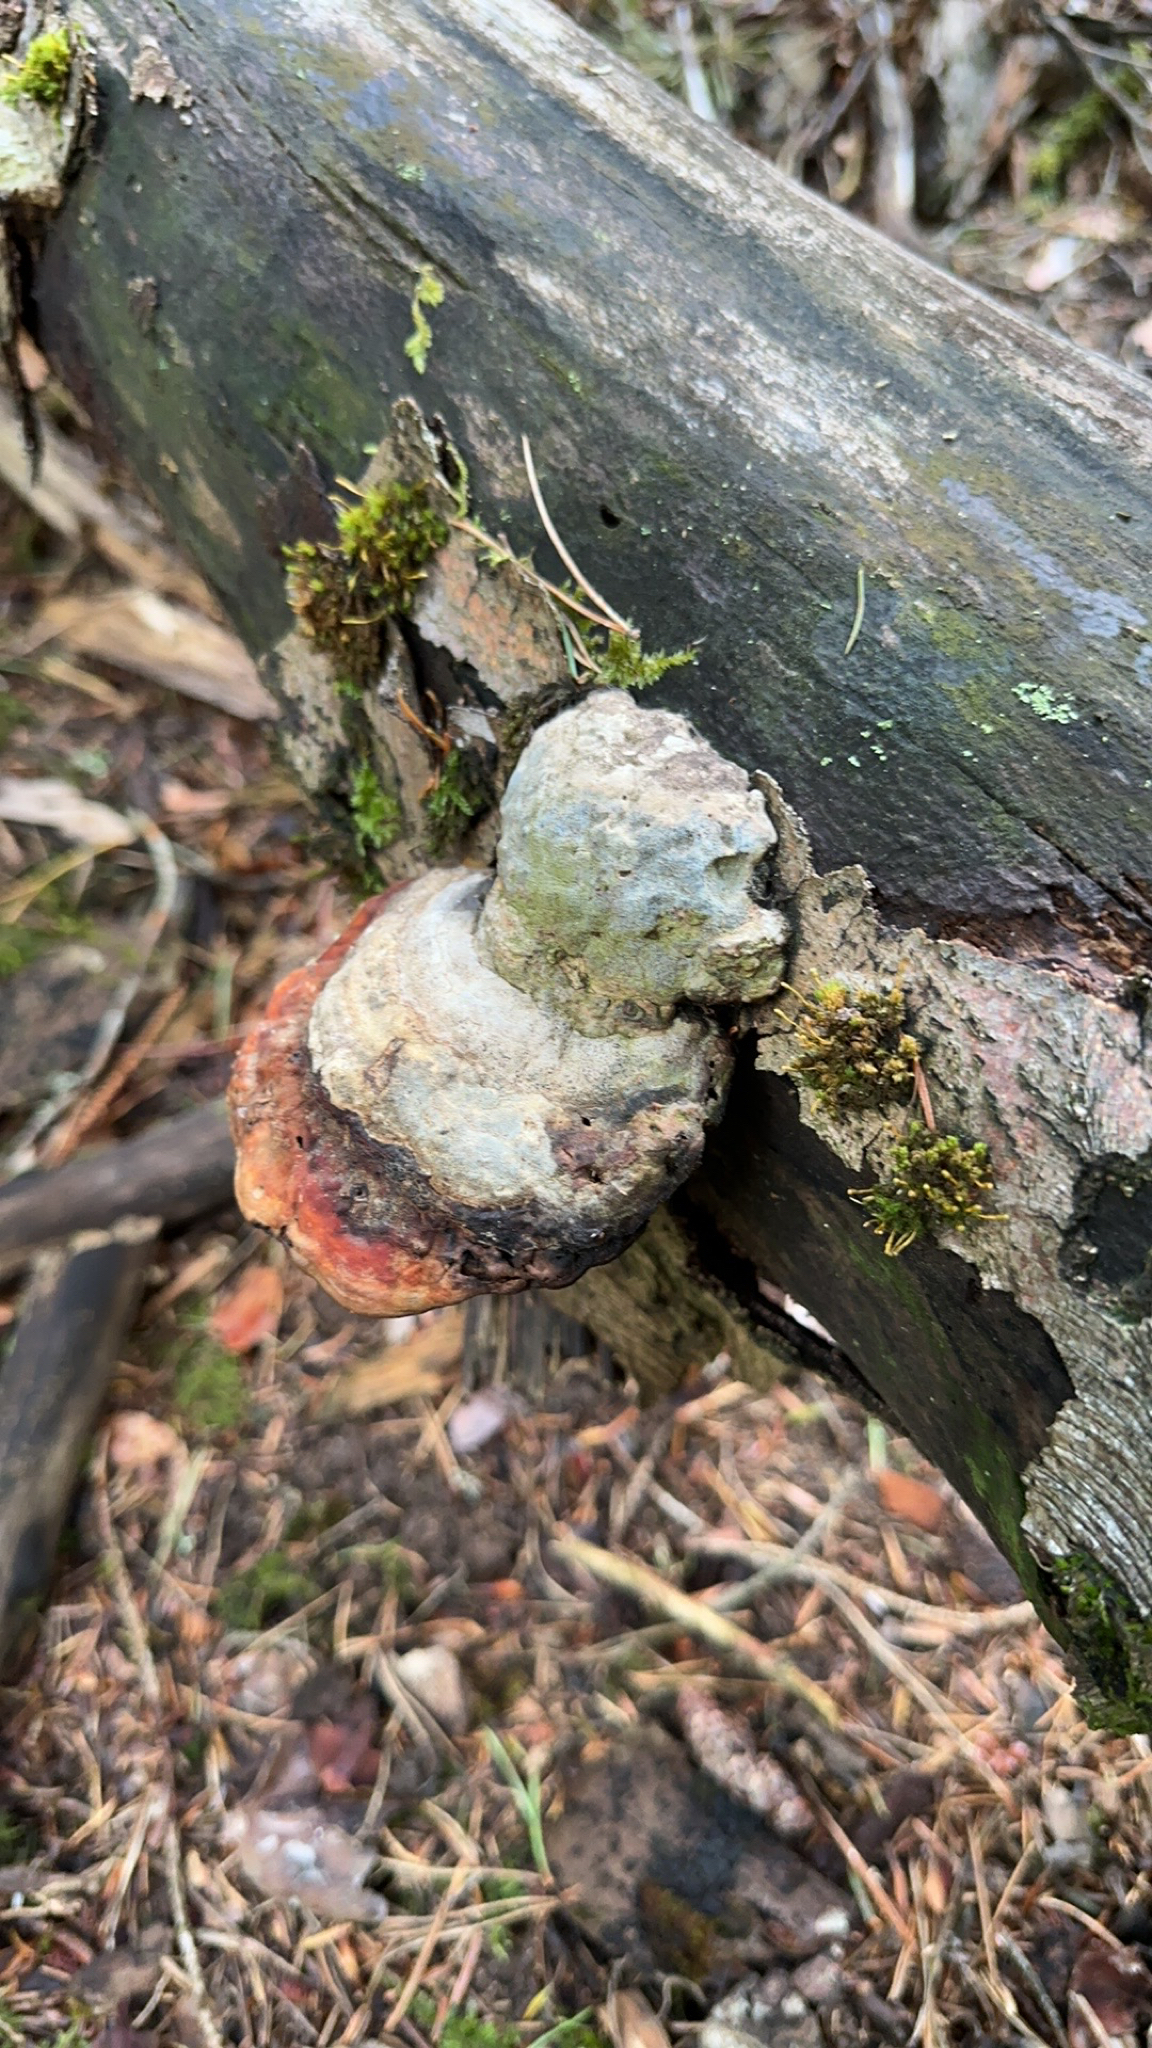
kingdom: Fungi
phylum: Basidiomycota
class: Agaricomycetes
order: Polyporales
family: Fomitopsidaceae
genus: Fomitopsis
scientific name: Fomitopsis pinicola
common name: Red-belted bracket
